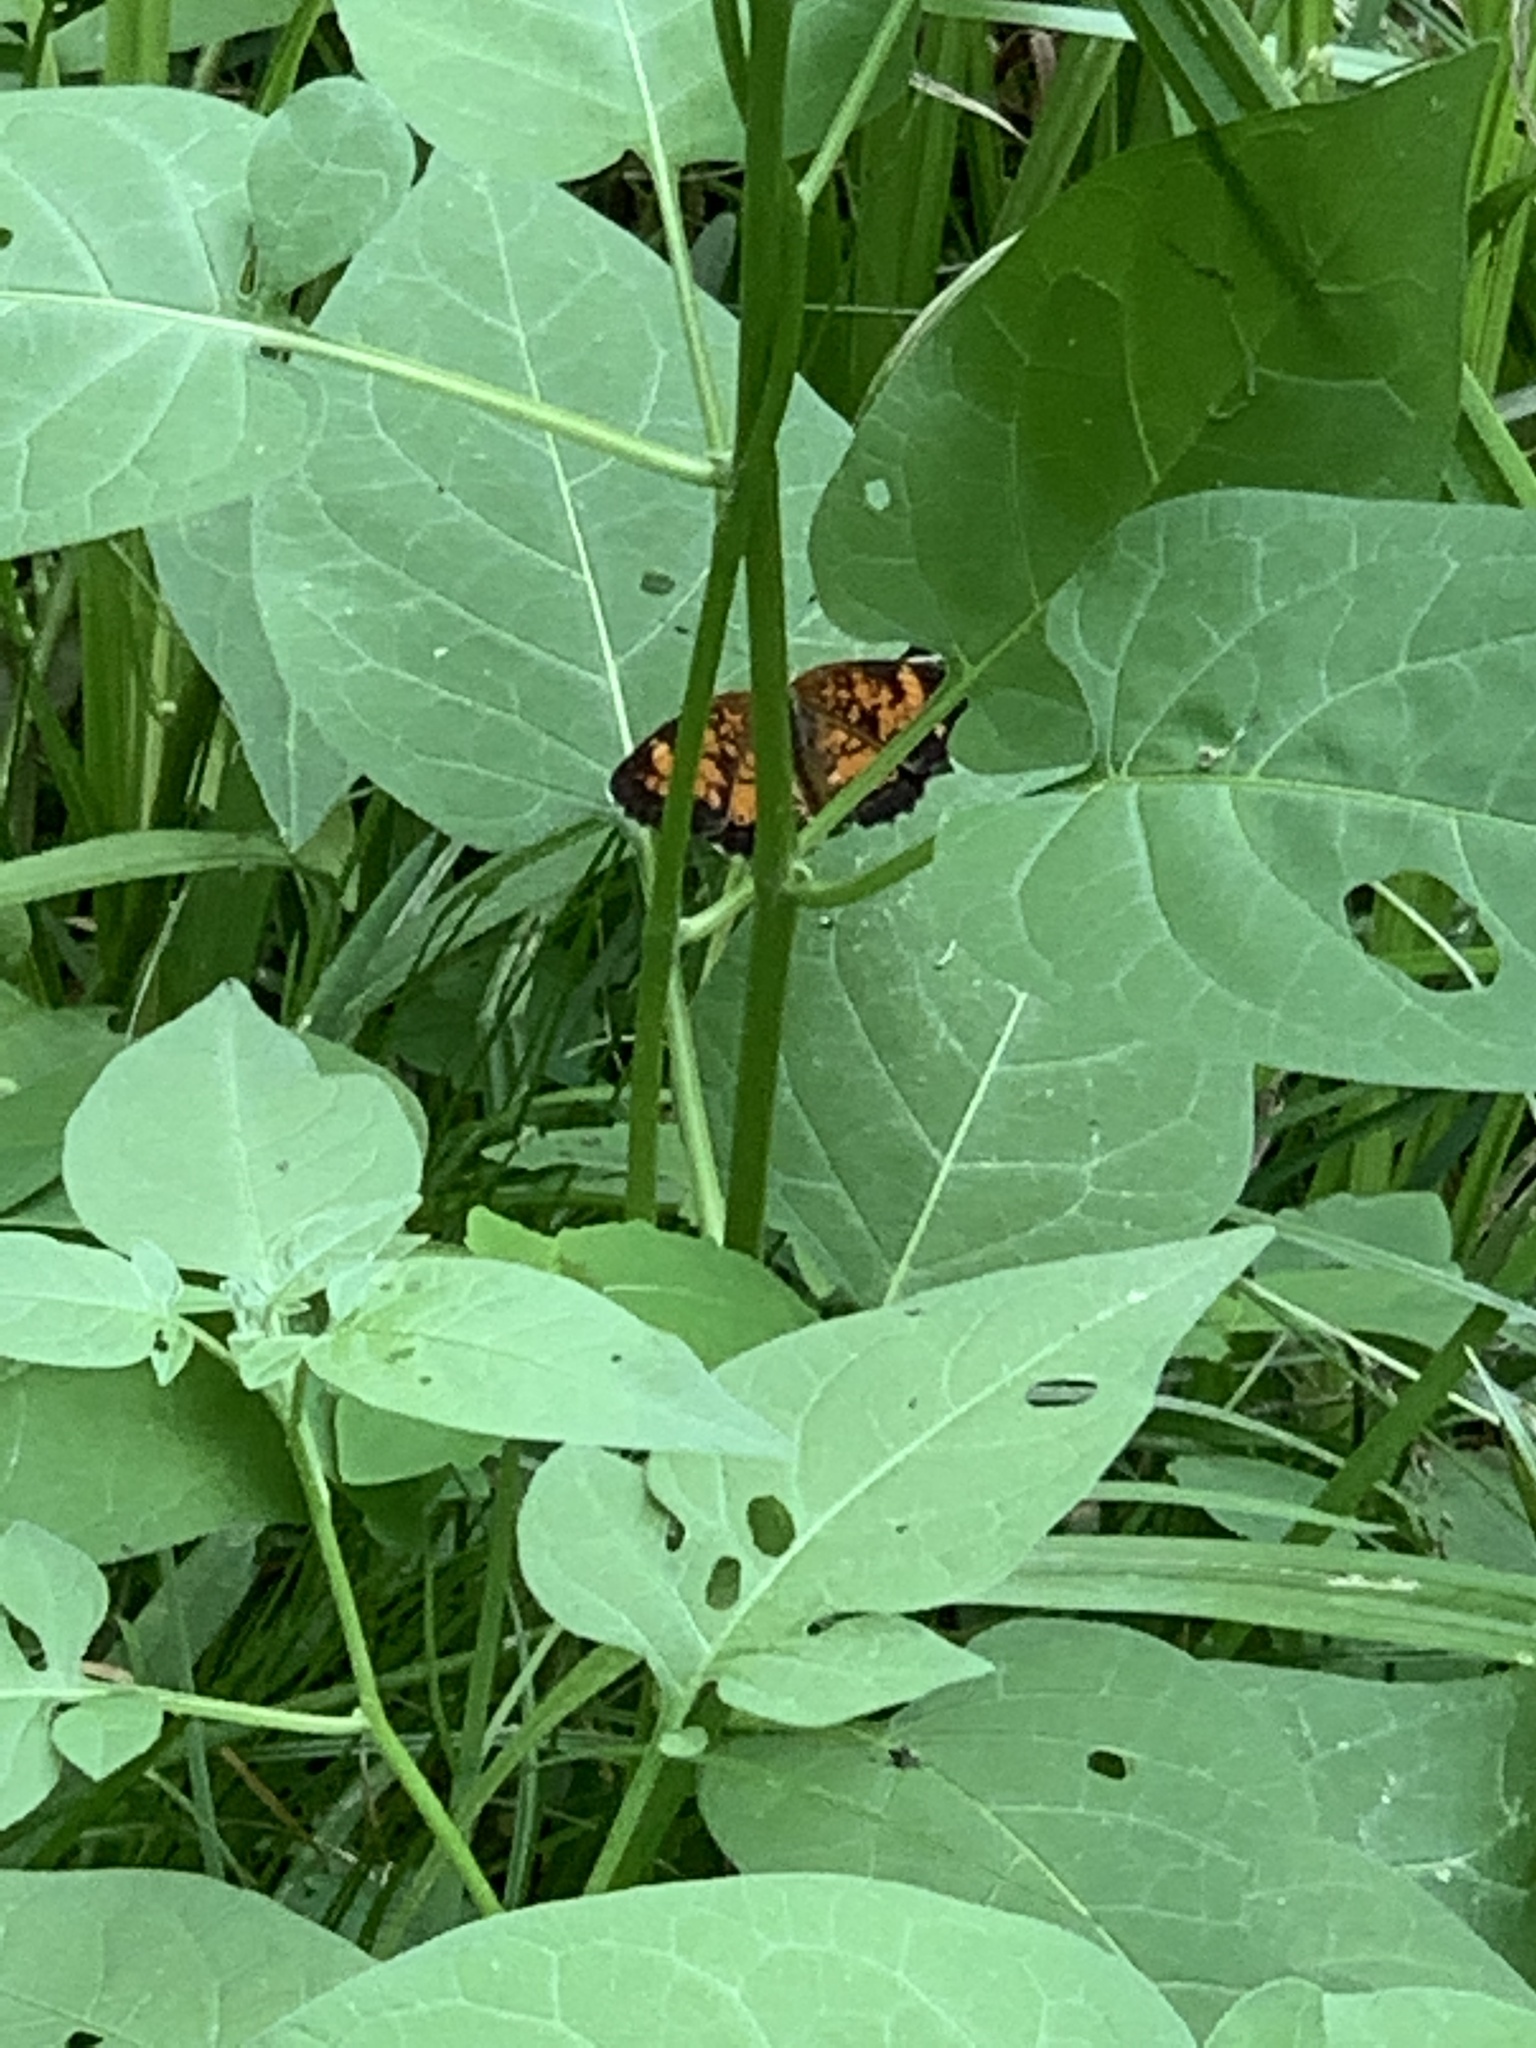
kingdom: Animalia
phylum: Arthropoda
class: Insecta
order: Lepidoptera
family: Nymphalidae
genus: Phyciodes
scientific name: Phyciodes tharos
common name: Pearl crescent
